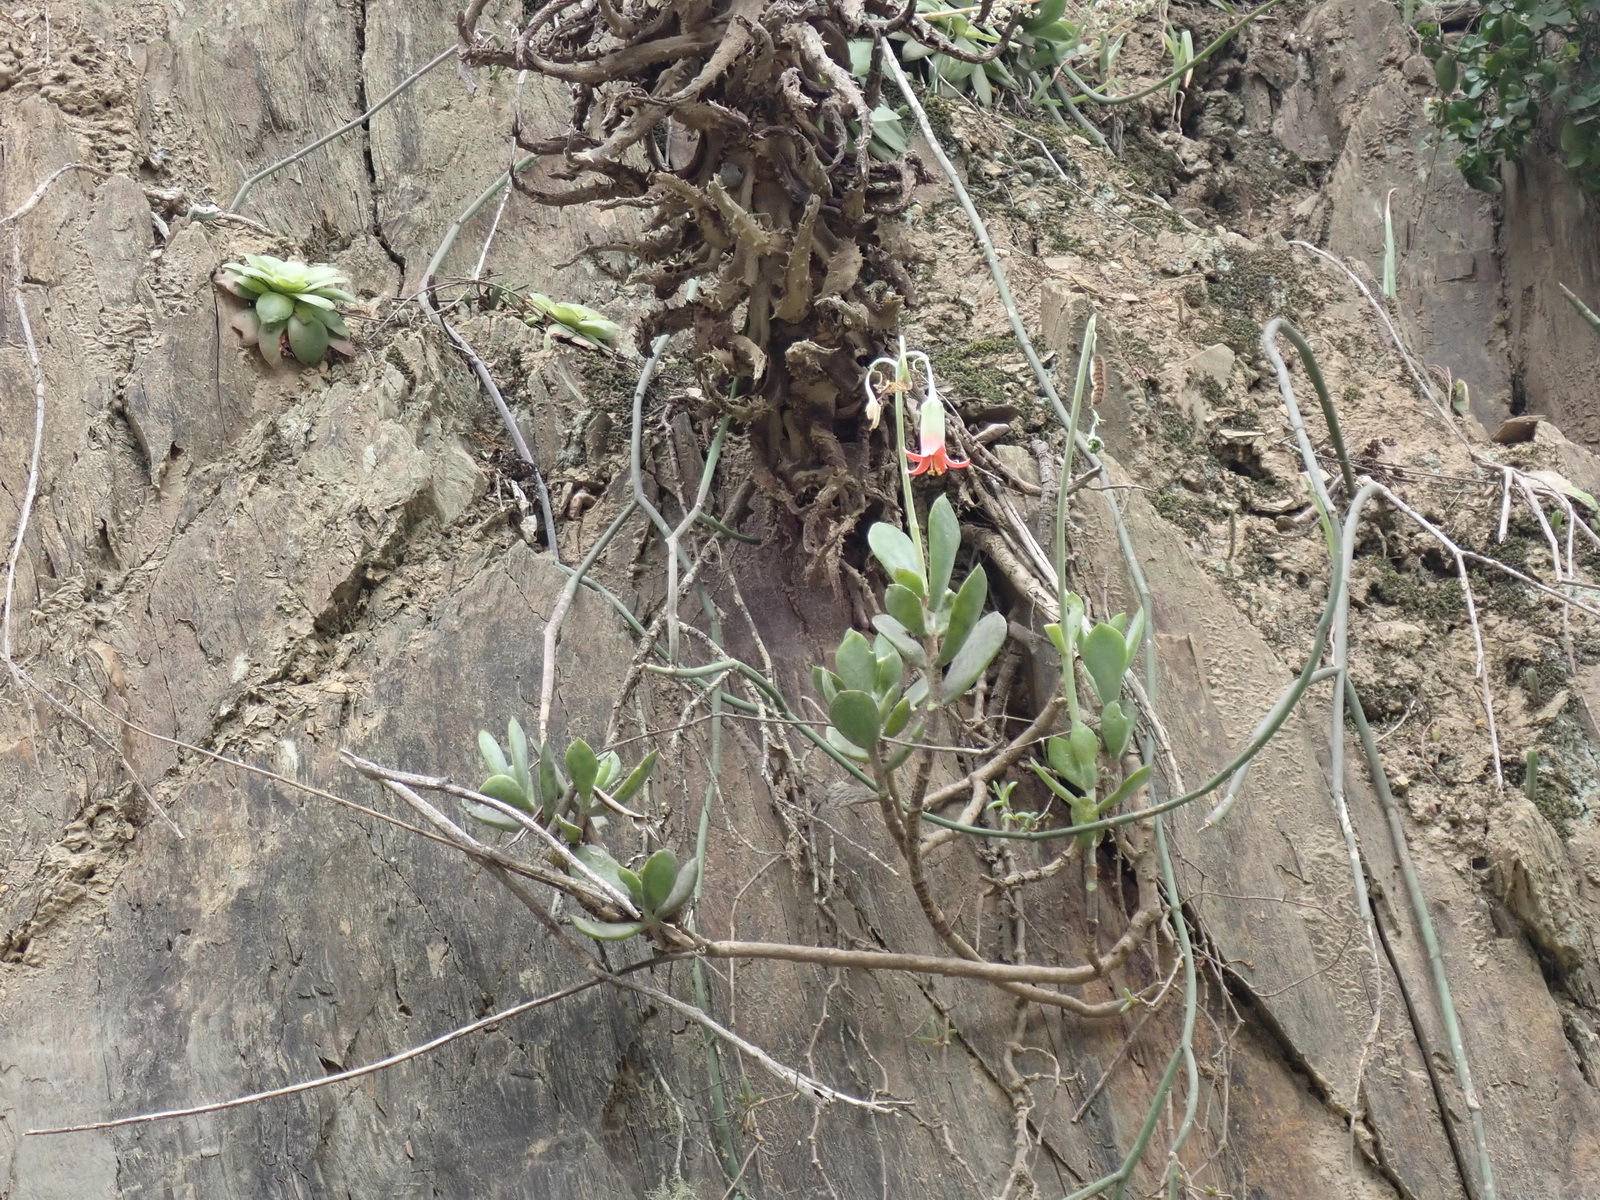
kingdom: Plantae
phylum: Tracheophyta
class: Magnoliopsida
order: Saxifragales
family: Crassulaceae
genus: Cotyledon
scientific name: Cotyledon woodii
